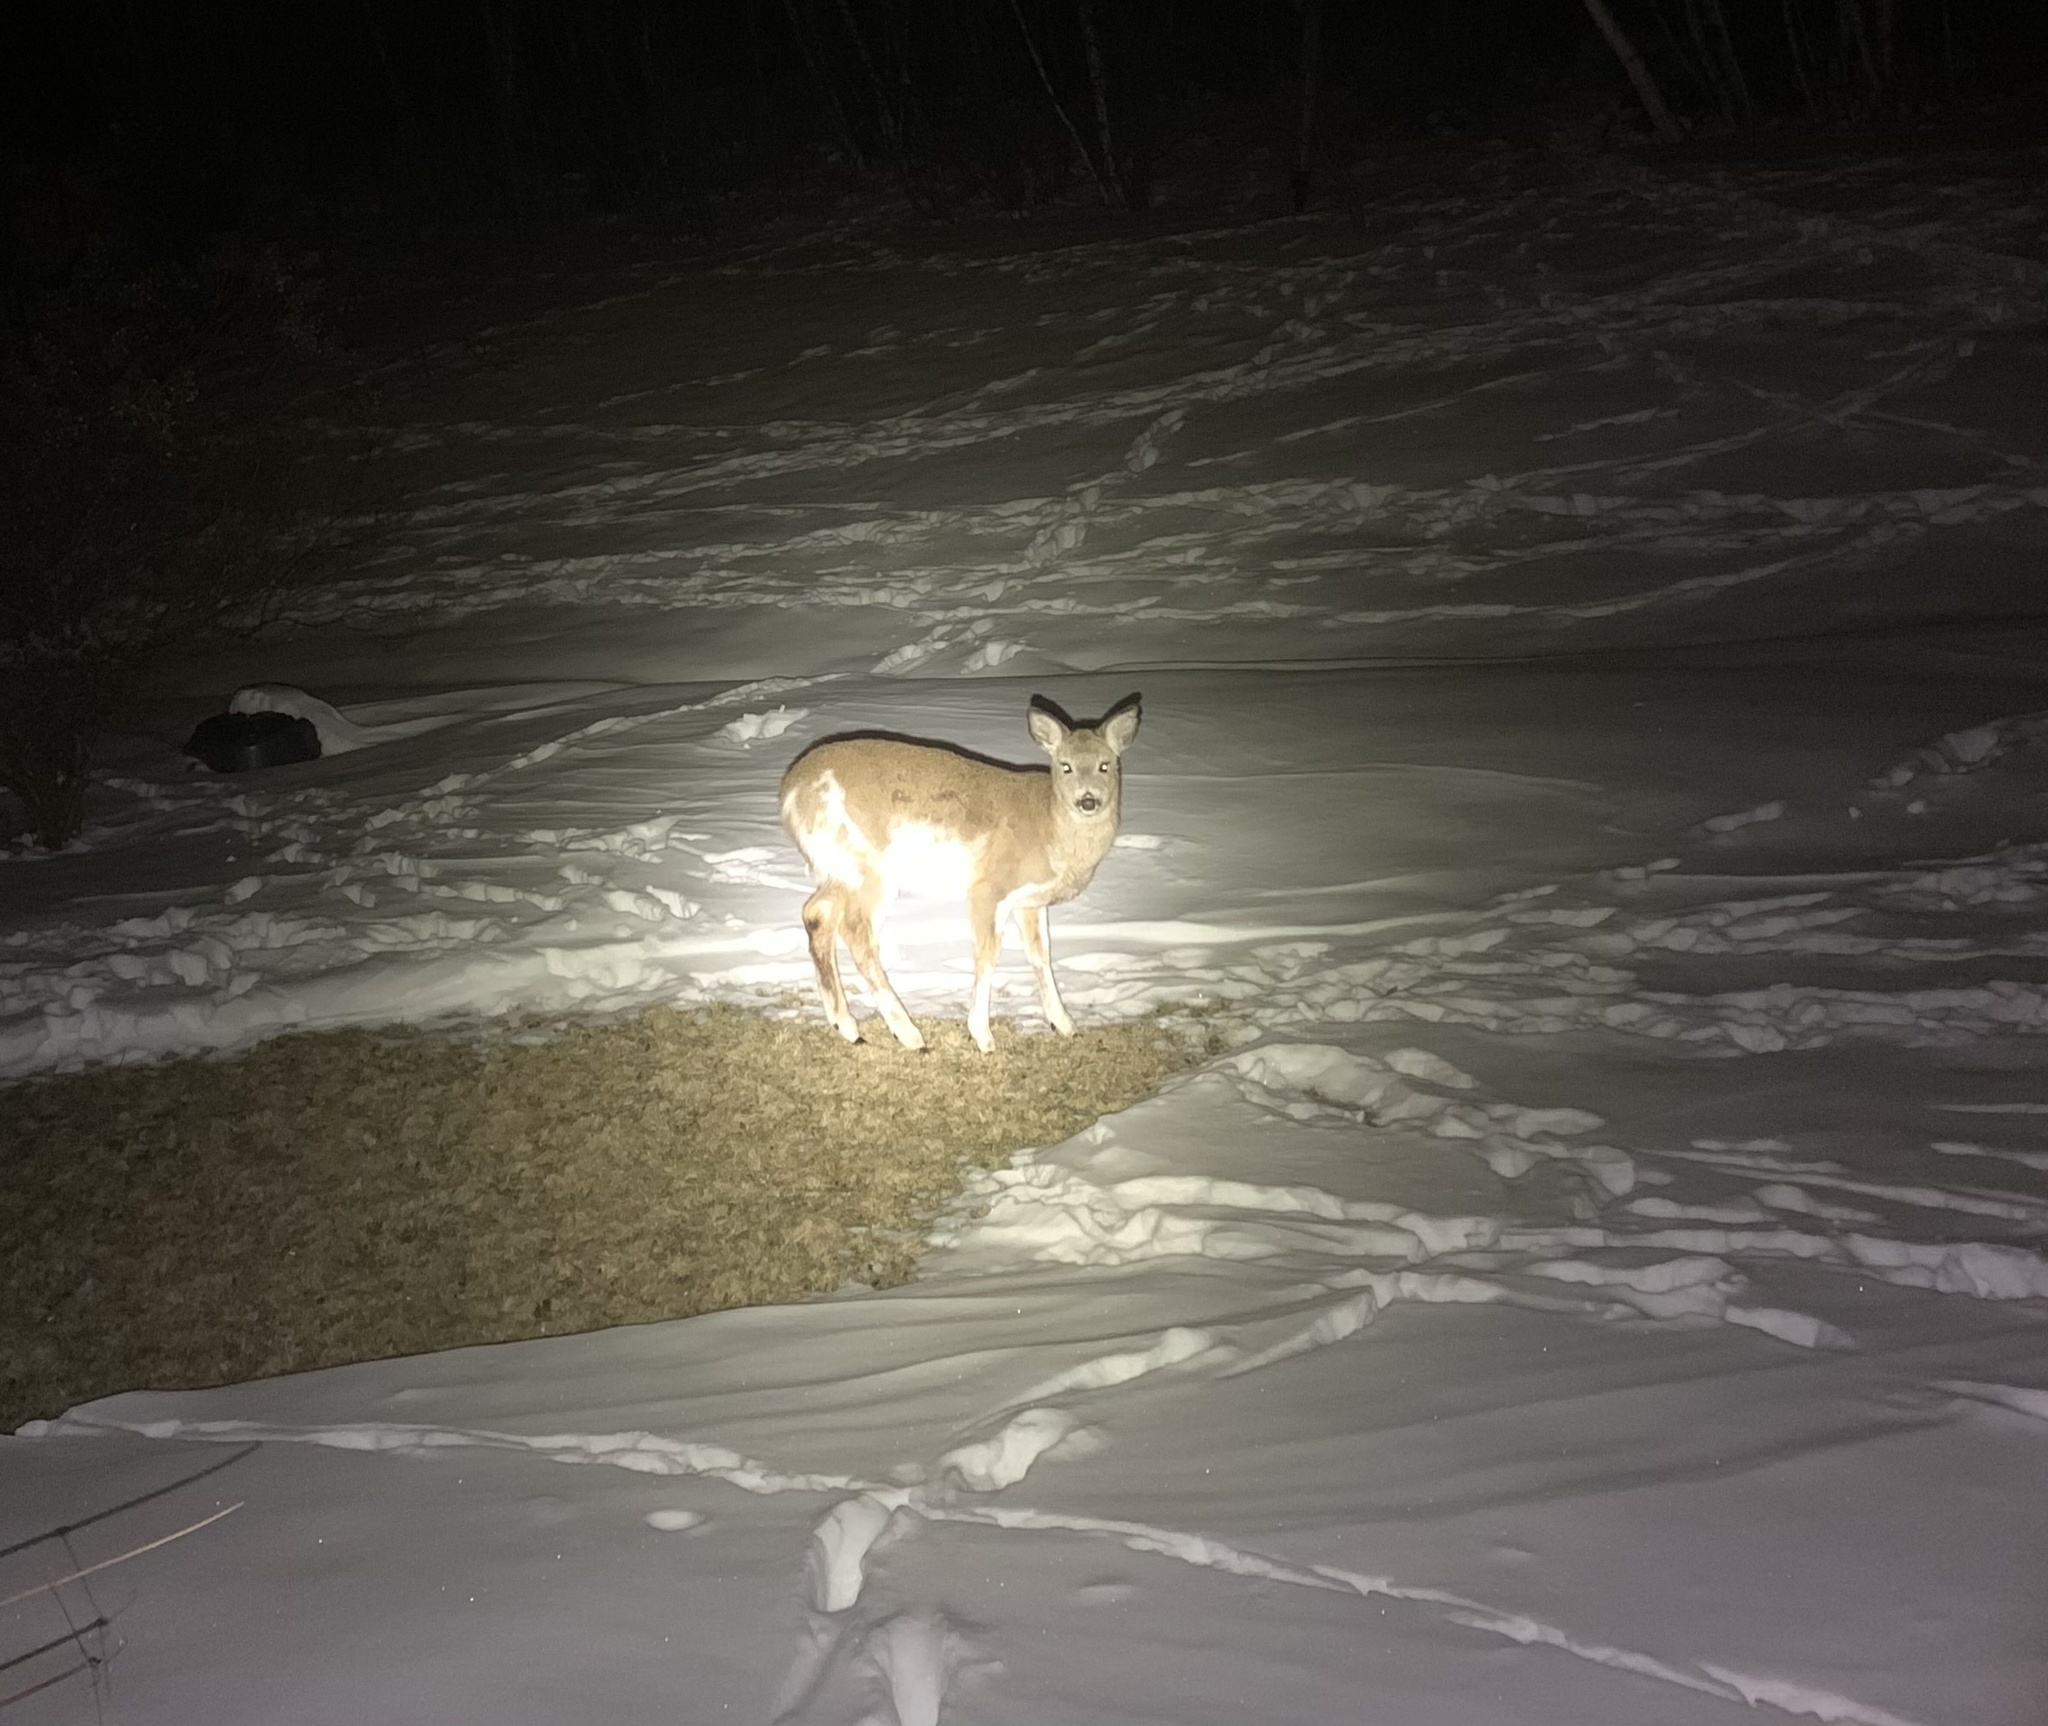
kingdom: Animalia
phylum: Chordata
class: Mammalia
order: Artiodactyla
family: Cervidae
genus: Odocoileus
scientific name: Odocoileus virginianus
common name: White-tailed deer
